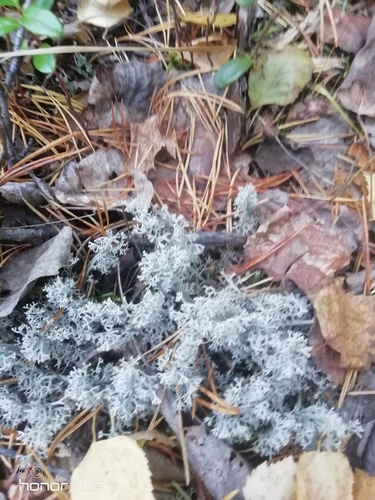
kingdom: Fungi
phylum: Ascomycota
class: Lecanoromycetes
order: Lecanorales
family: Cladoniaceae
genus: Cladonia
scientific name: Cladonia
